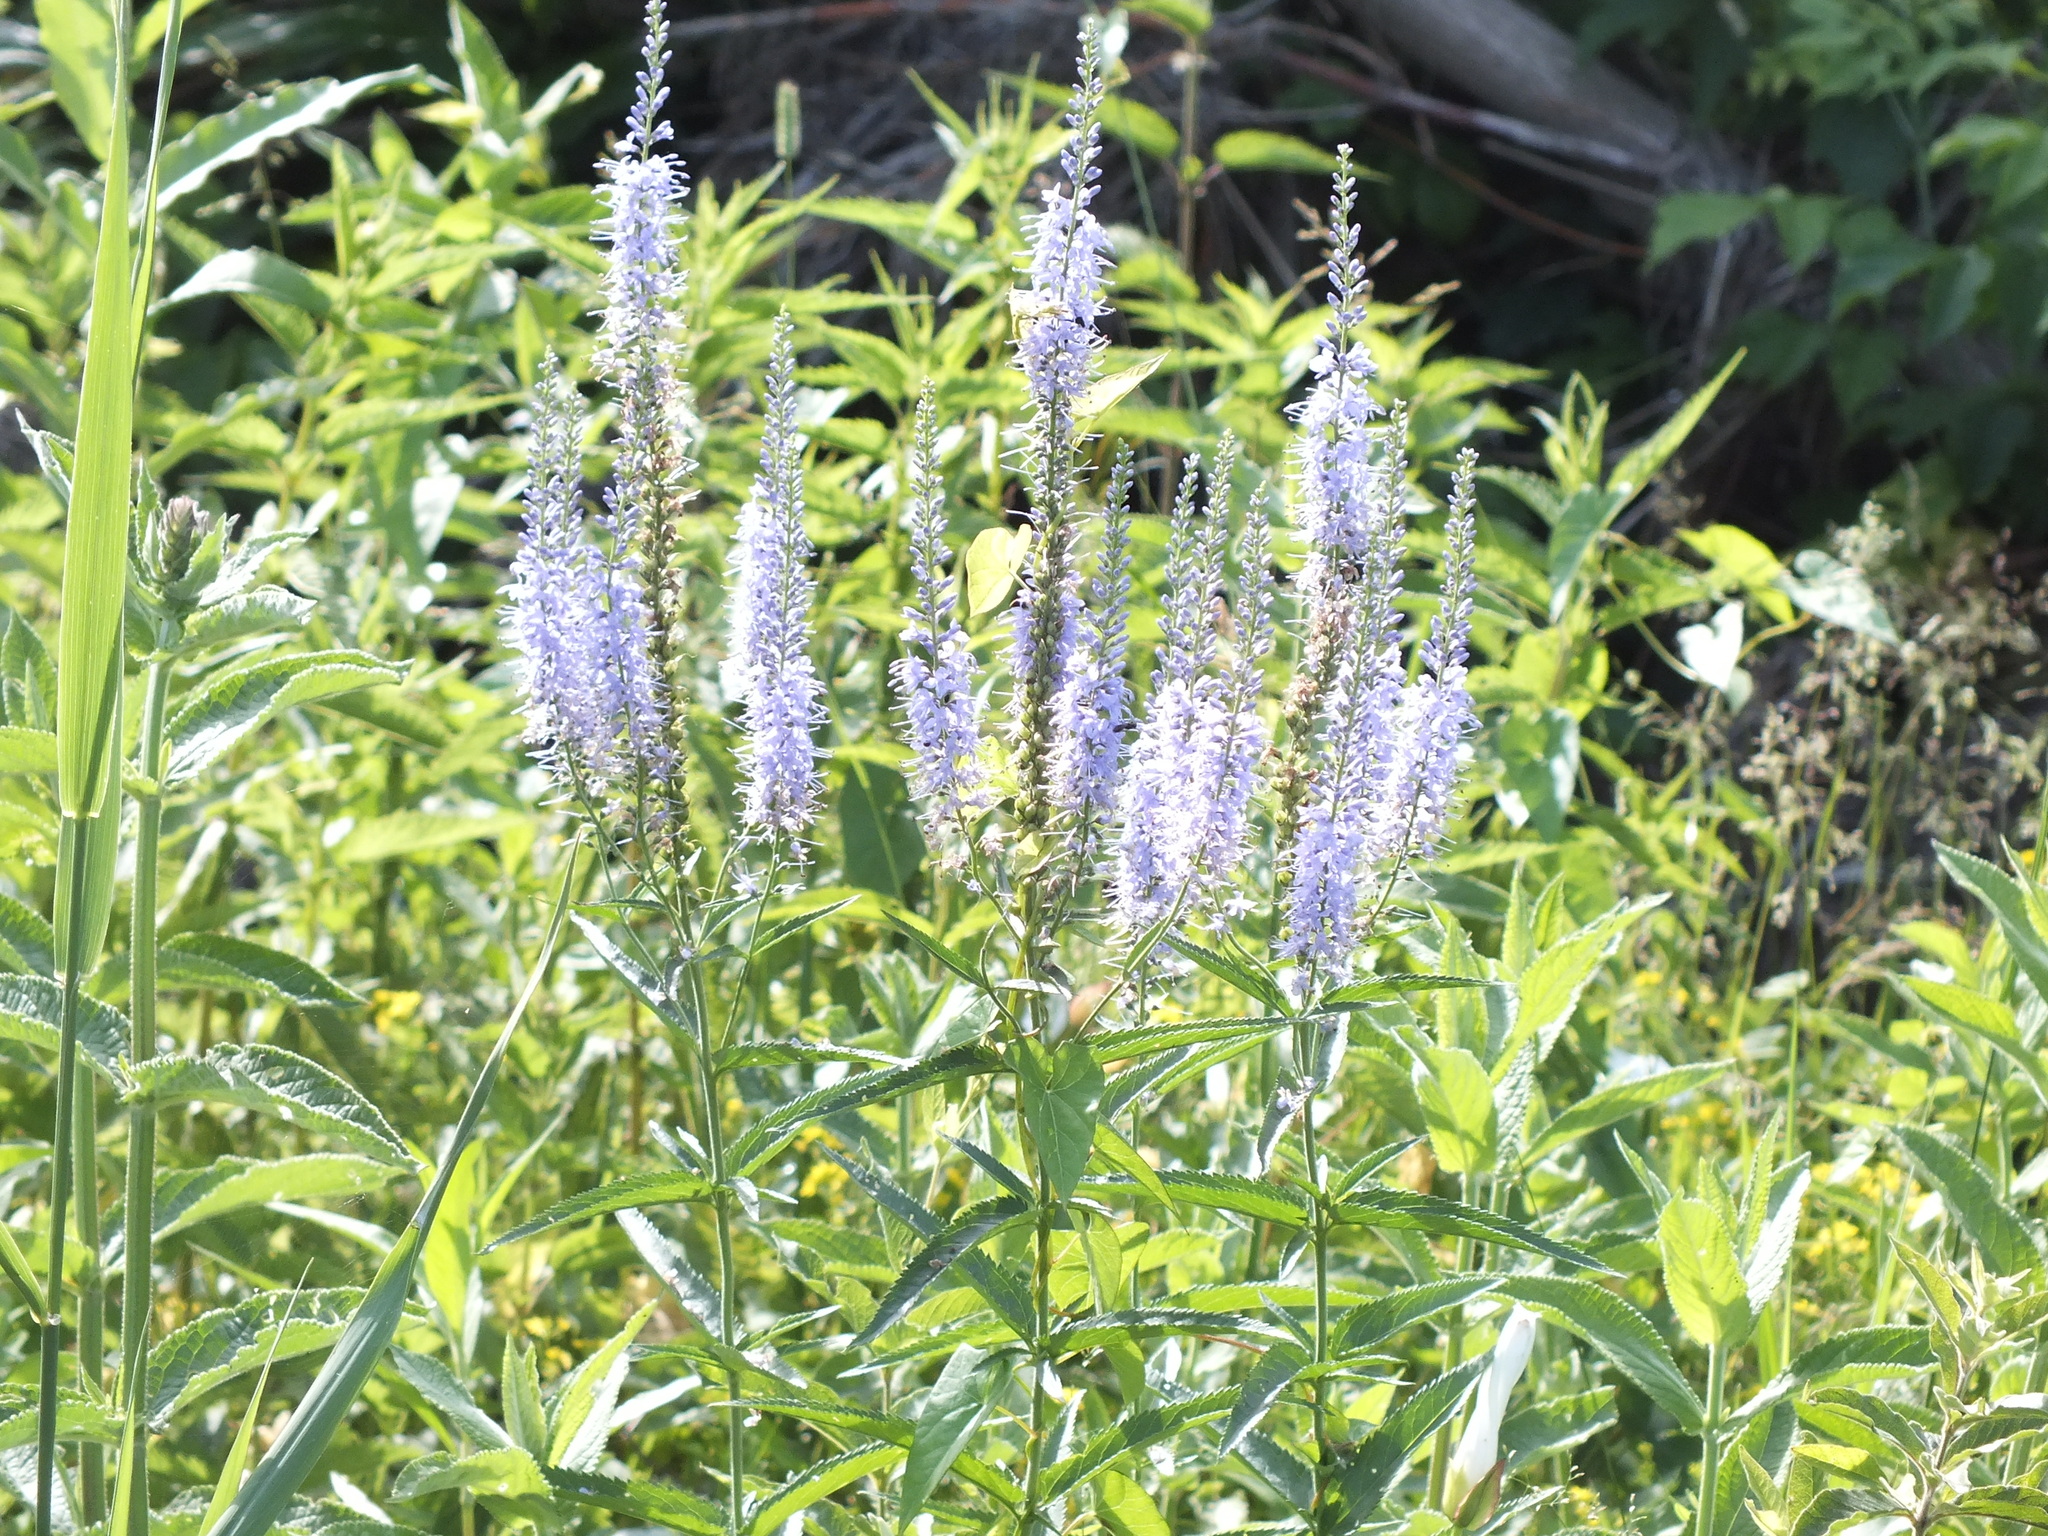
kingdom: Plantae
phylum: Tracheophyta
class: Magnoliopsida
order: Lamiales
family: Plantaginaceae
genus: Veronica
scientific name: Veronica longifolia
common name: Garden speedwell
